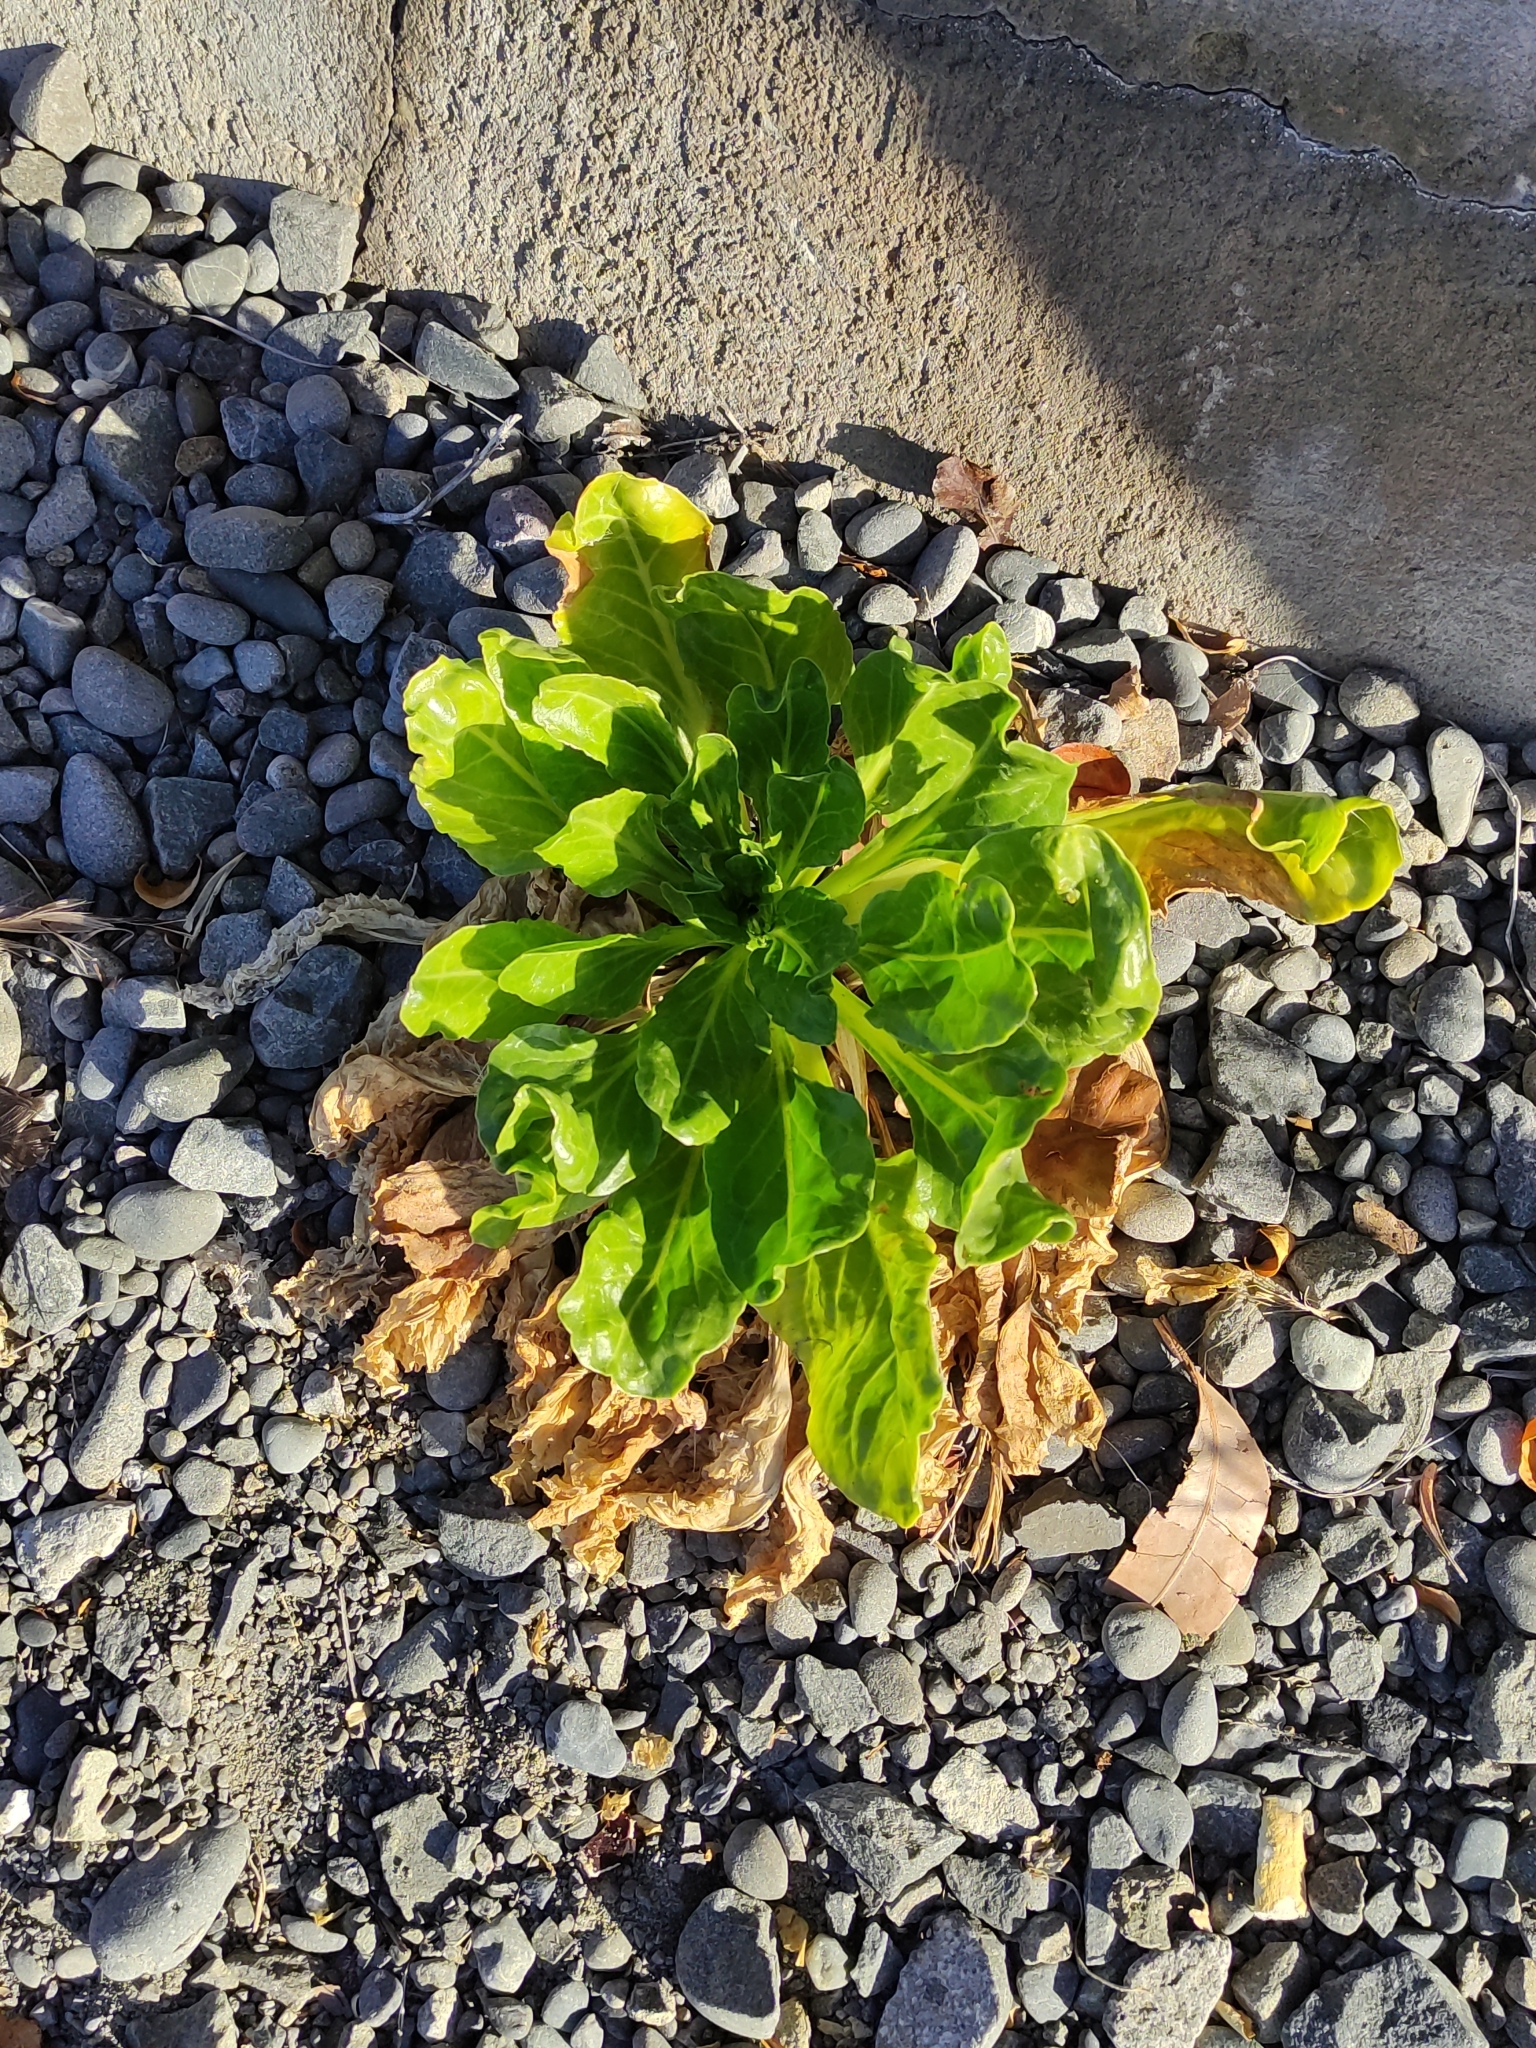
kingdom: Plantae
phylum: Tracheophyta
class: Magnoliopsida
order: Caryophyllales
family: Amaranthaceae
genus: Beta
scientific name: Beta vulgaris
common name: Beet
